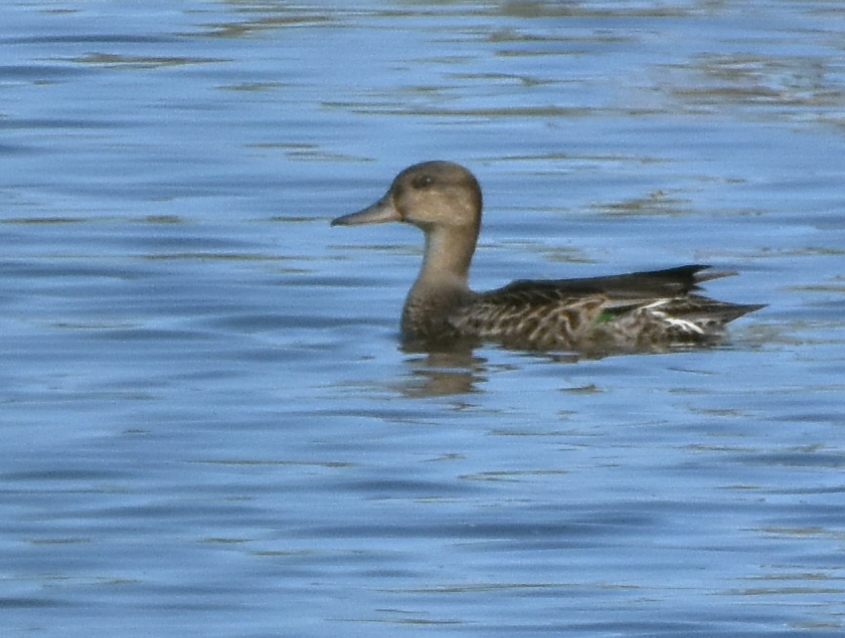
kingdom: Animalia
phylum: Chordata
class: Aves
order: Anseriformes
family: Anatidae
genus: Mareca
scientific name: Mareca strepera
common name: Gadwall
